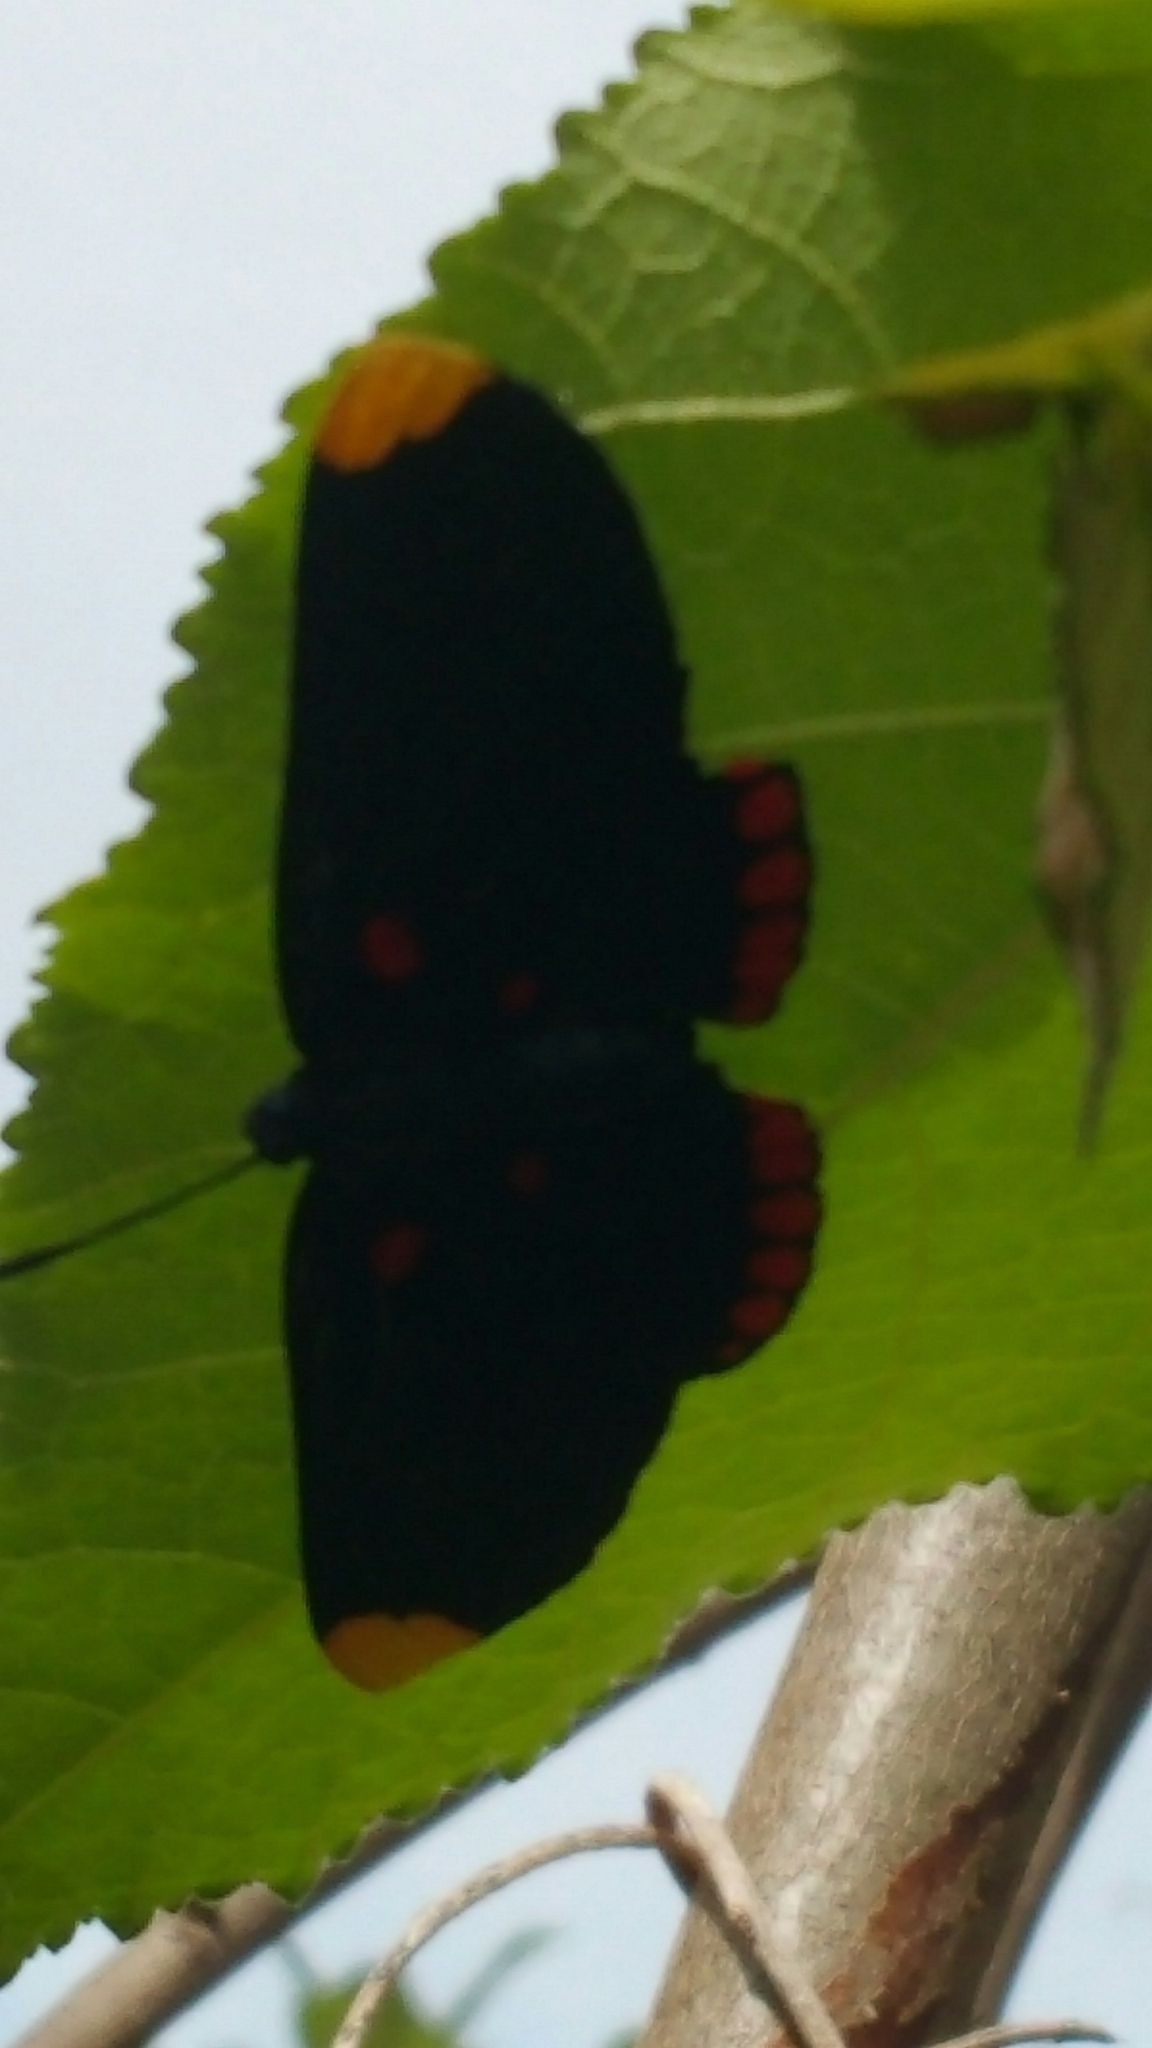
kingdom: Animalia
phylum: Arthropoda
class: Insecta
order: Lepidoptera
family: Lycaenidae
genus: Melanis
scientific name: Melanis pixe
